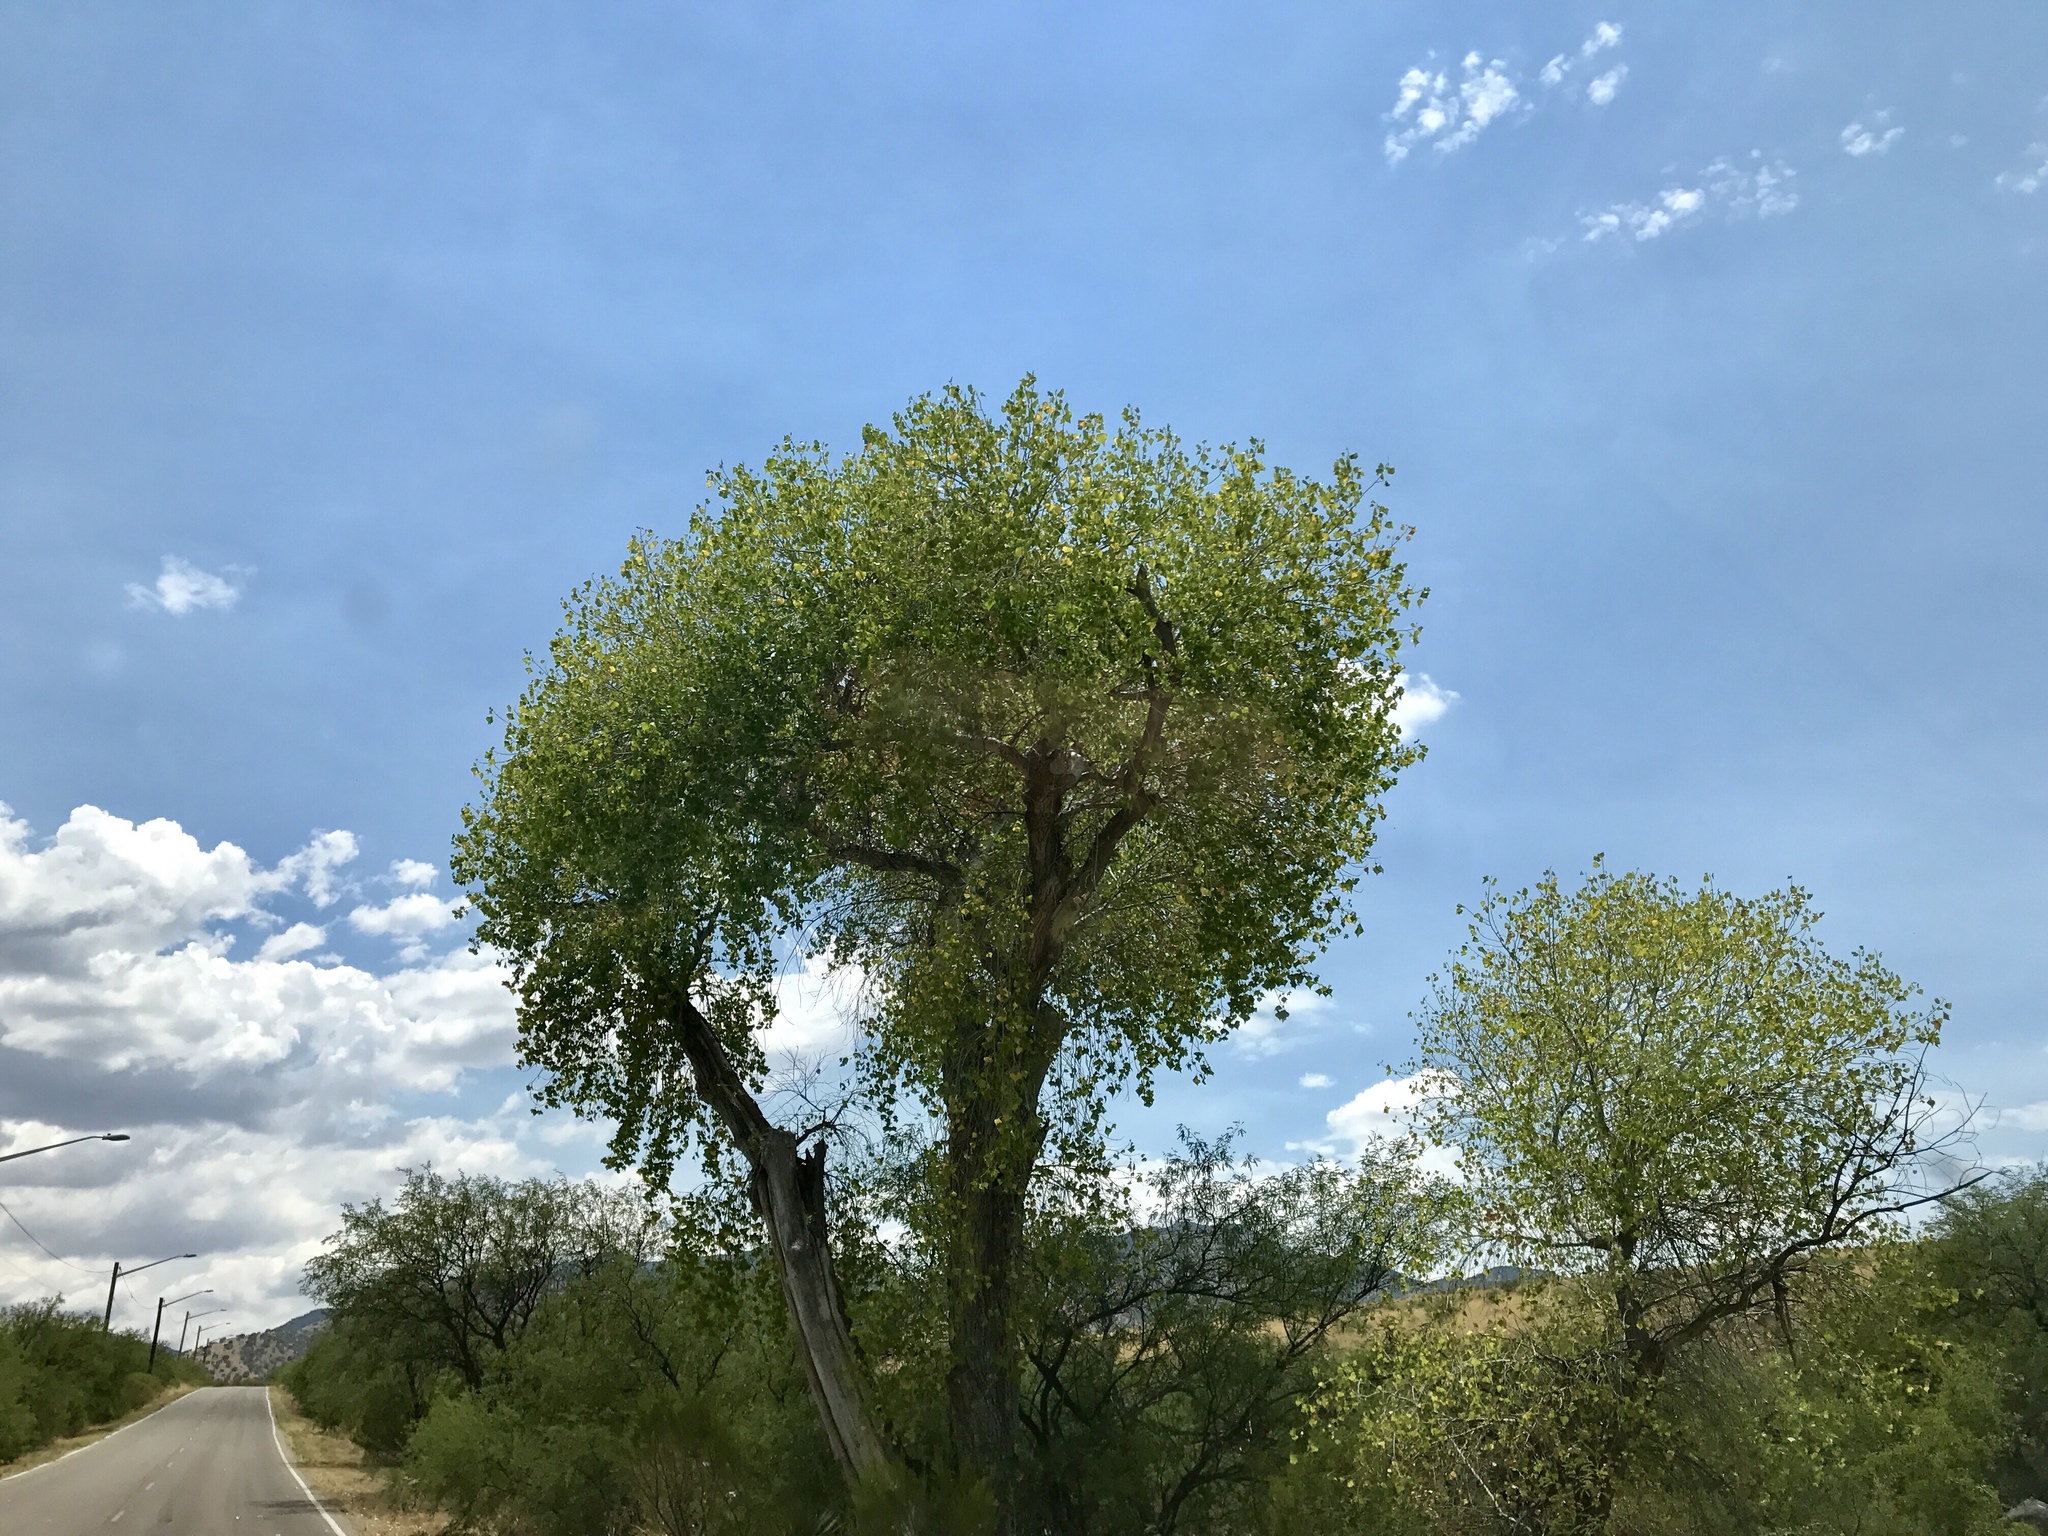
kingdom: Plantae
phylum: Tracheophyta
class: Magnoliopsida
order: Malpighiales
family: Salicaceae
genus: Populus
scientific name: Populus fremontii
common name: Fremont's cottonwood
